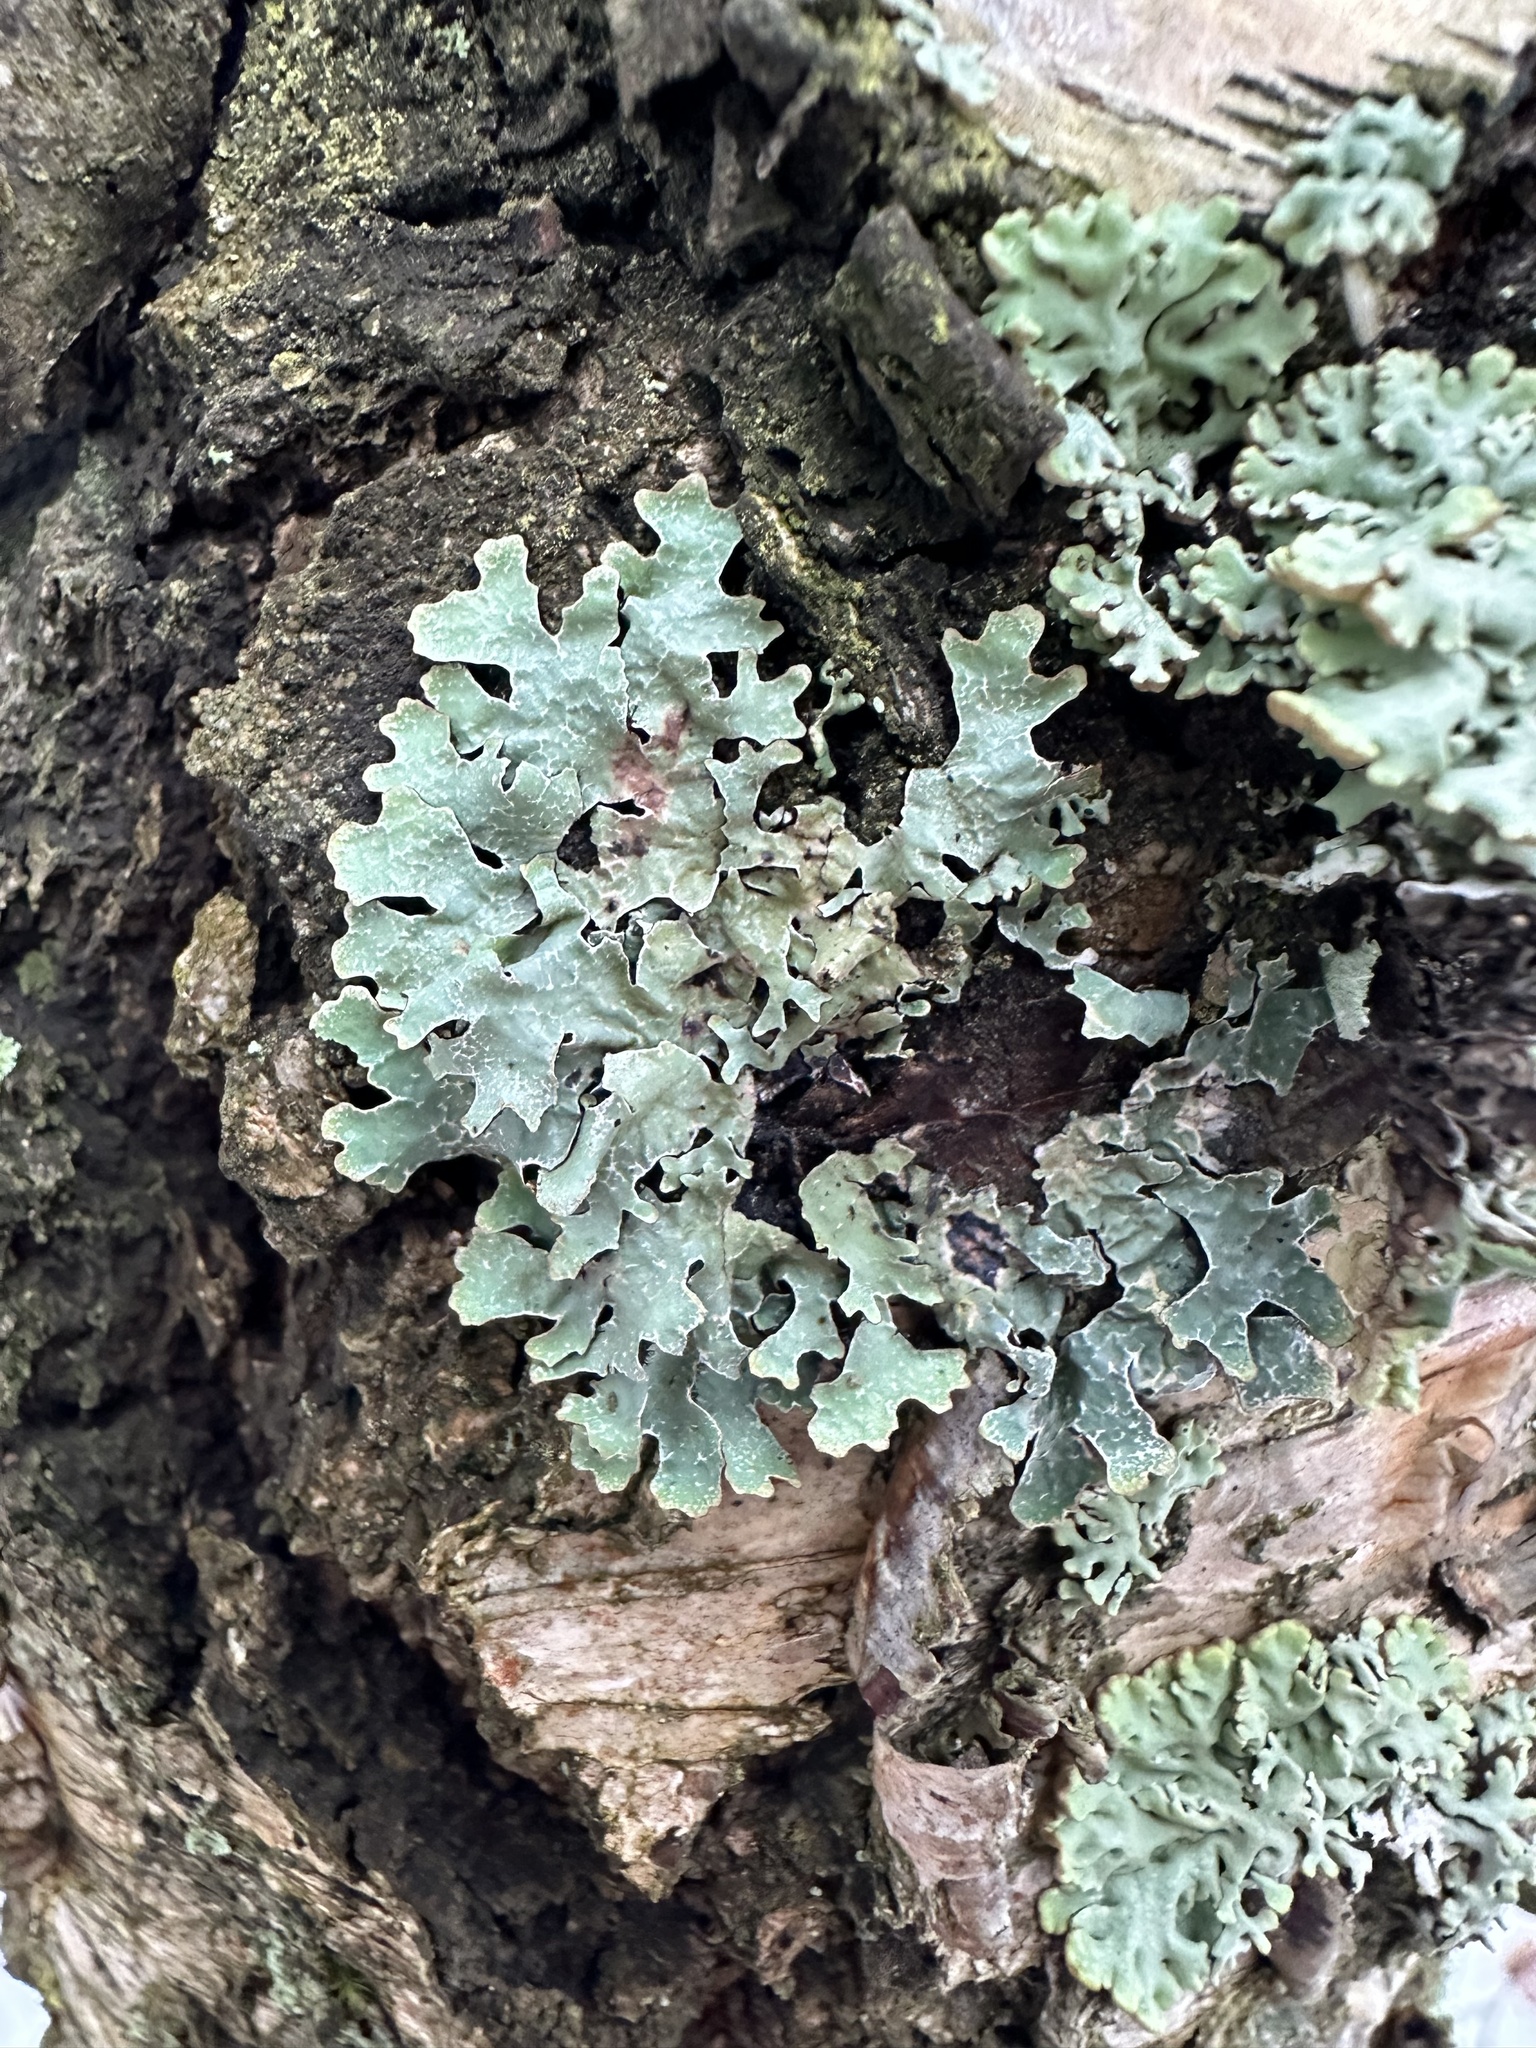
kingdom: Fungi
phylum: Ascomycota
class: Lecanoromycetes
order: Lecanorales
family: Parmeliaceae
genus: Parmelia
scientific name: Parmelia sulcata
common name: Netted shield lichen
